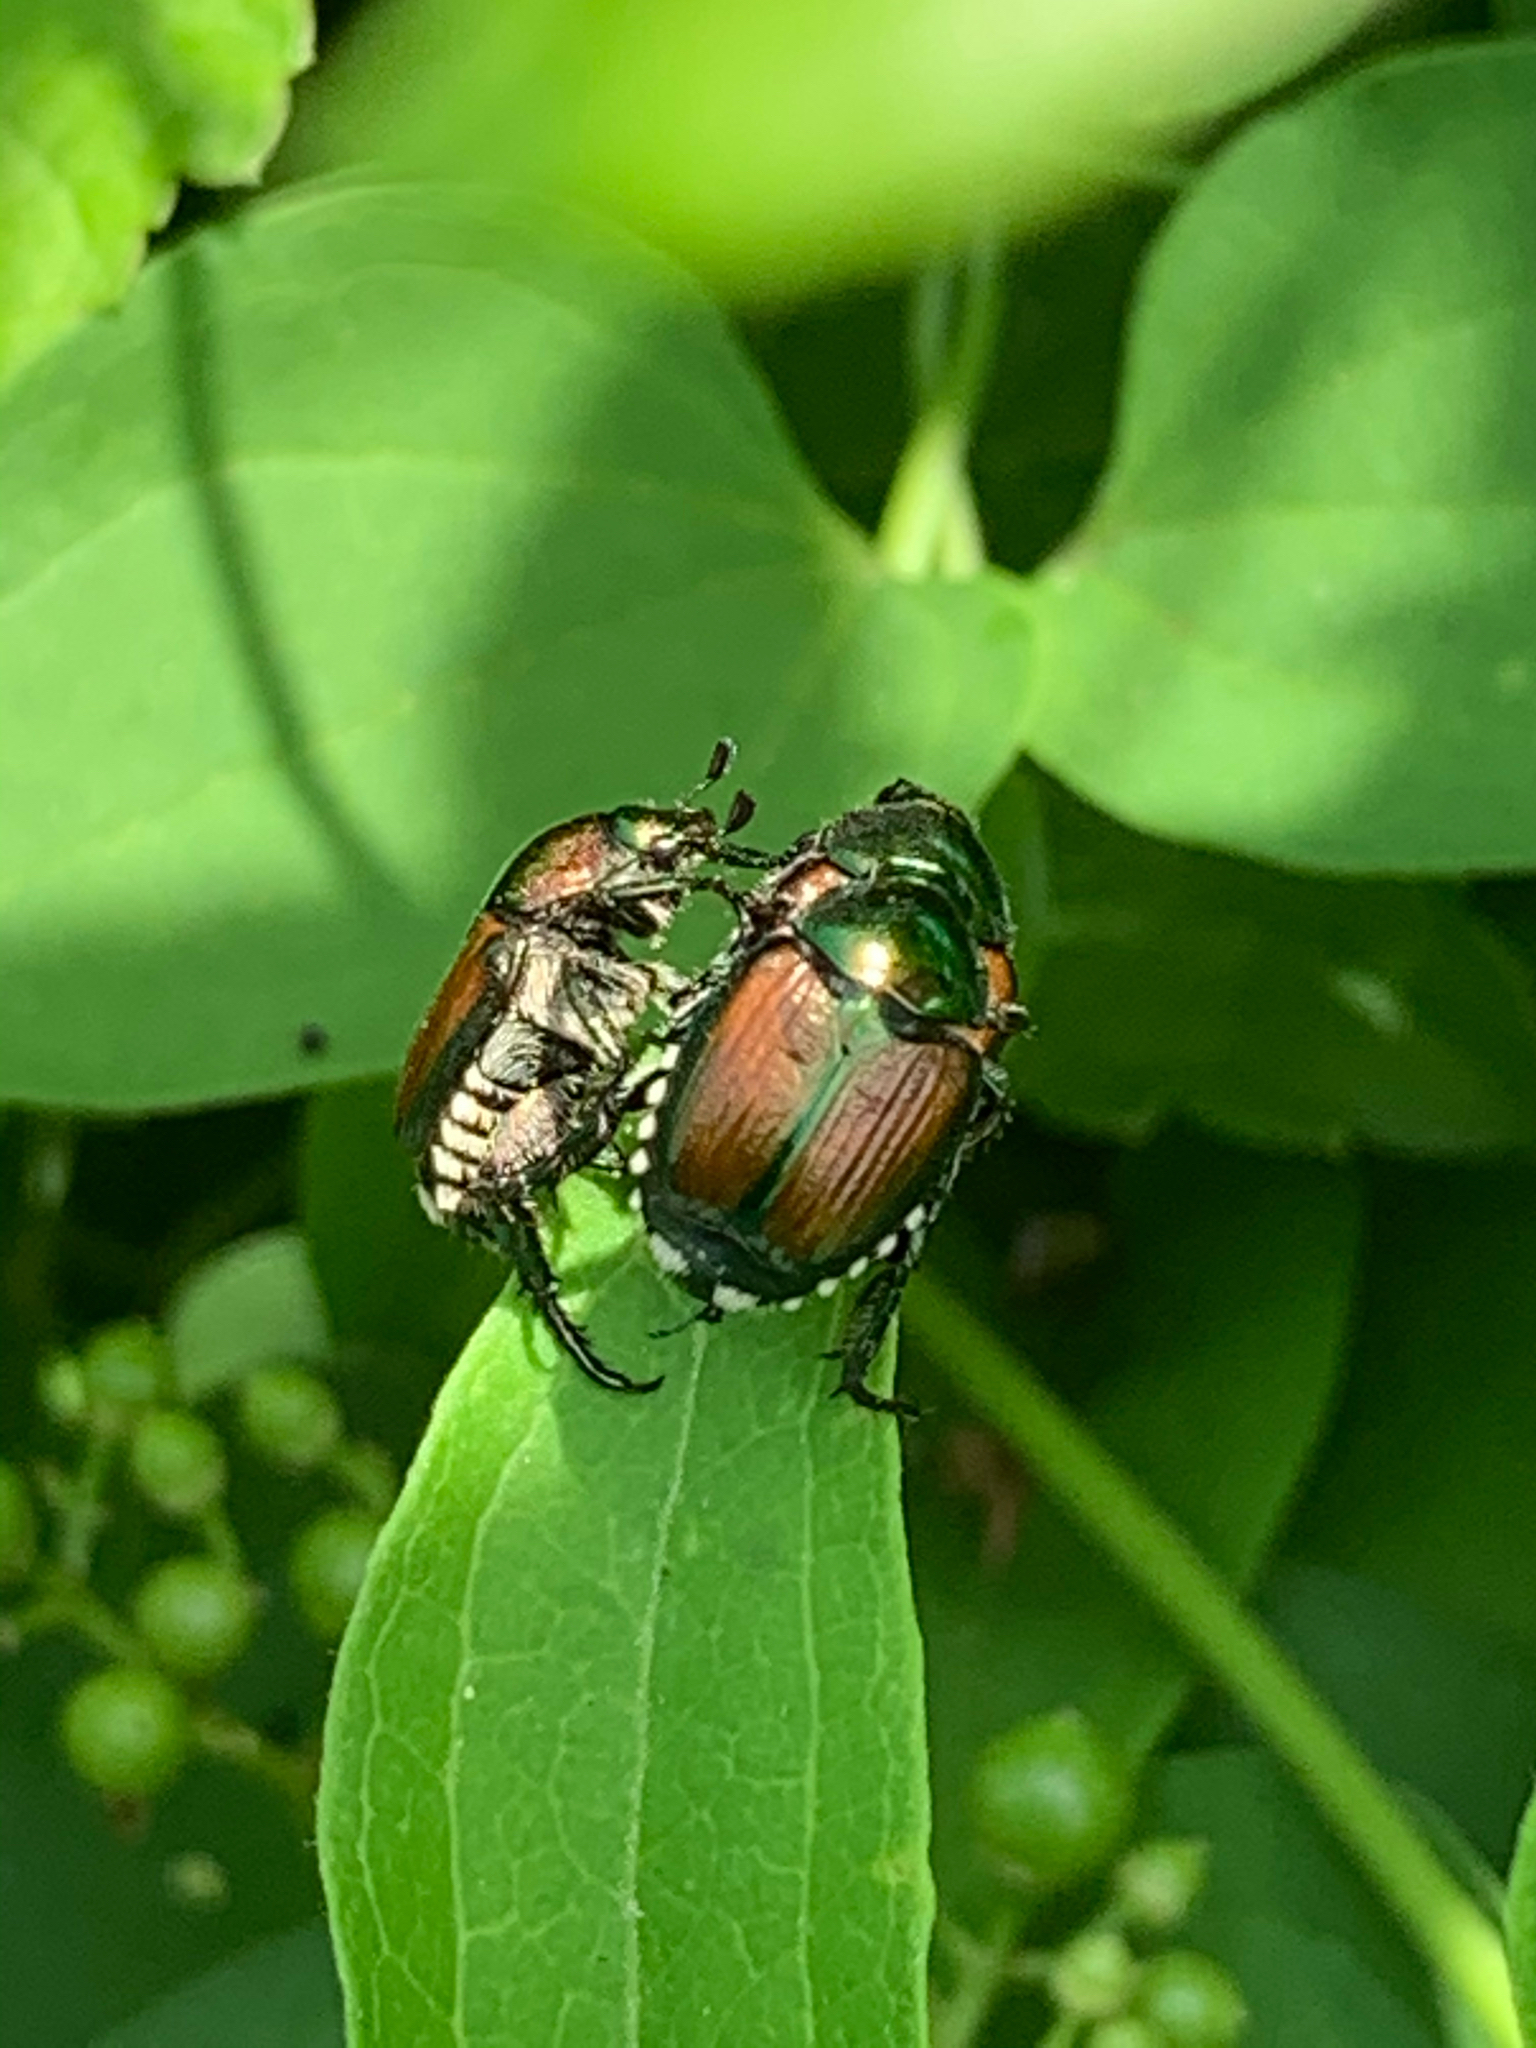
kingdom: Animalia
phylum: Arthropoda
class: Insecta
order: Coleoptera
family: Scarabaeidae
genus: Popillia
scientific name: Popillia japonica
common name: Japanese beetle
